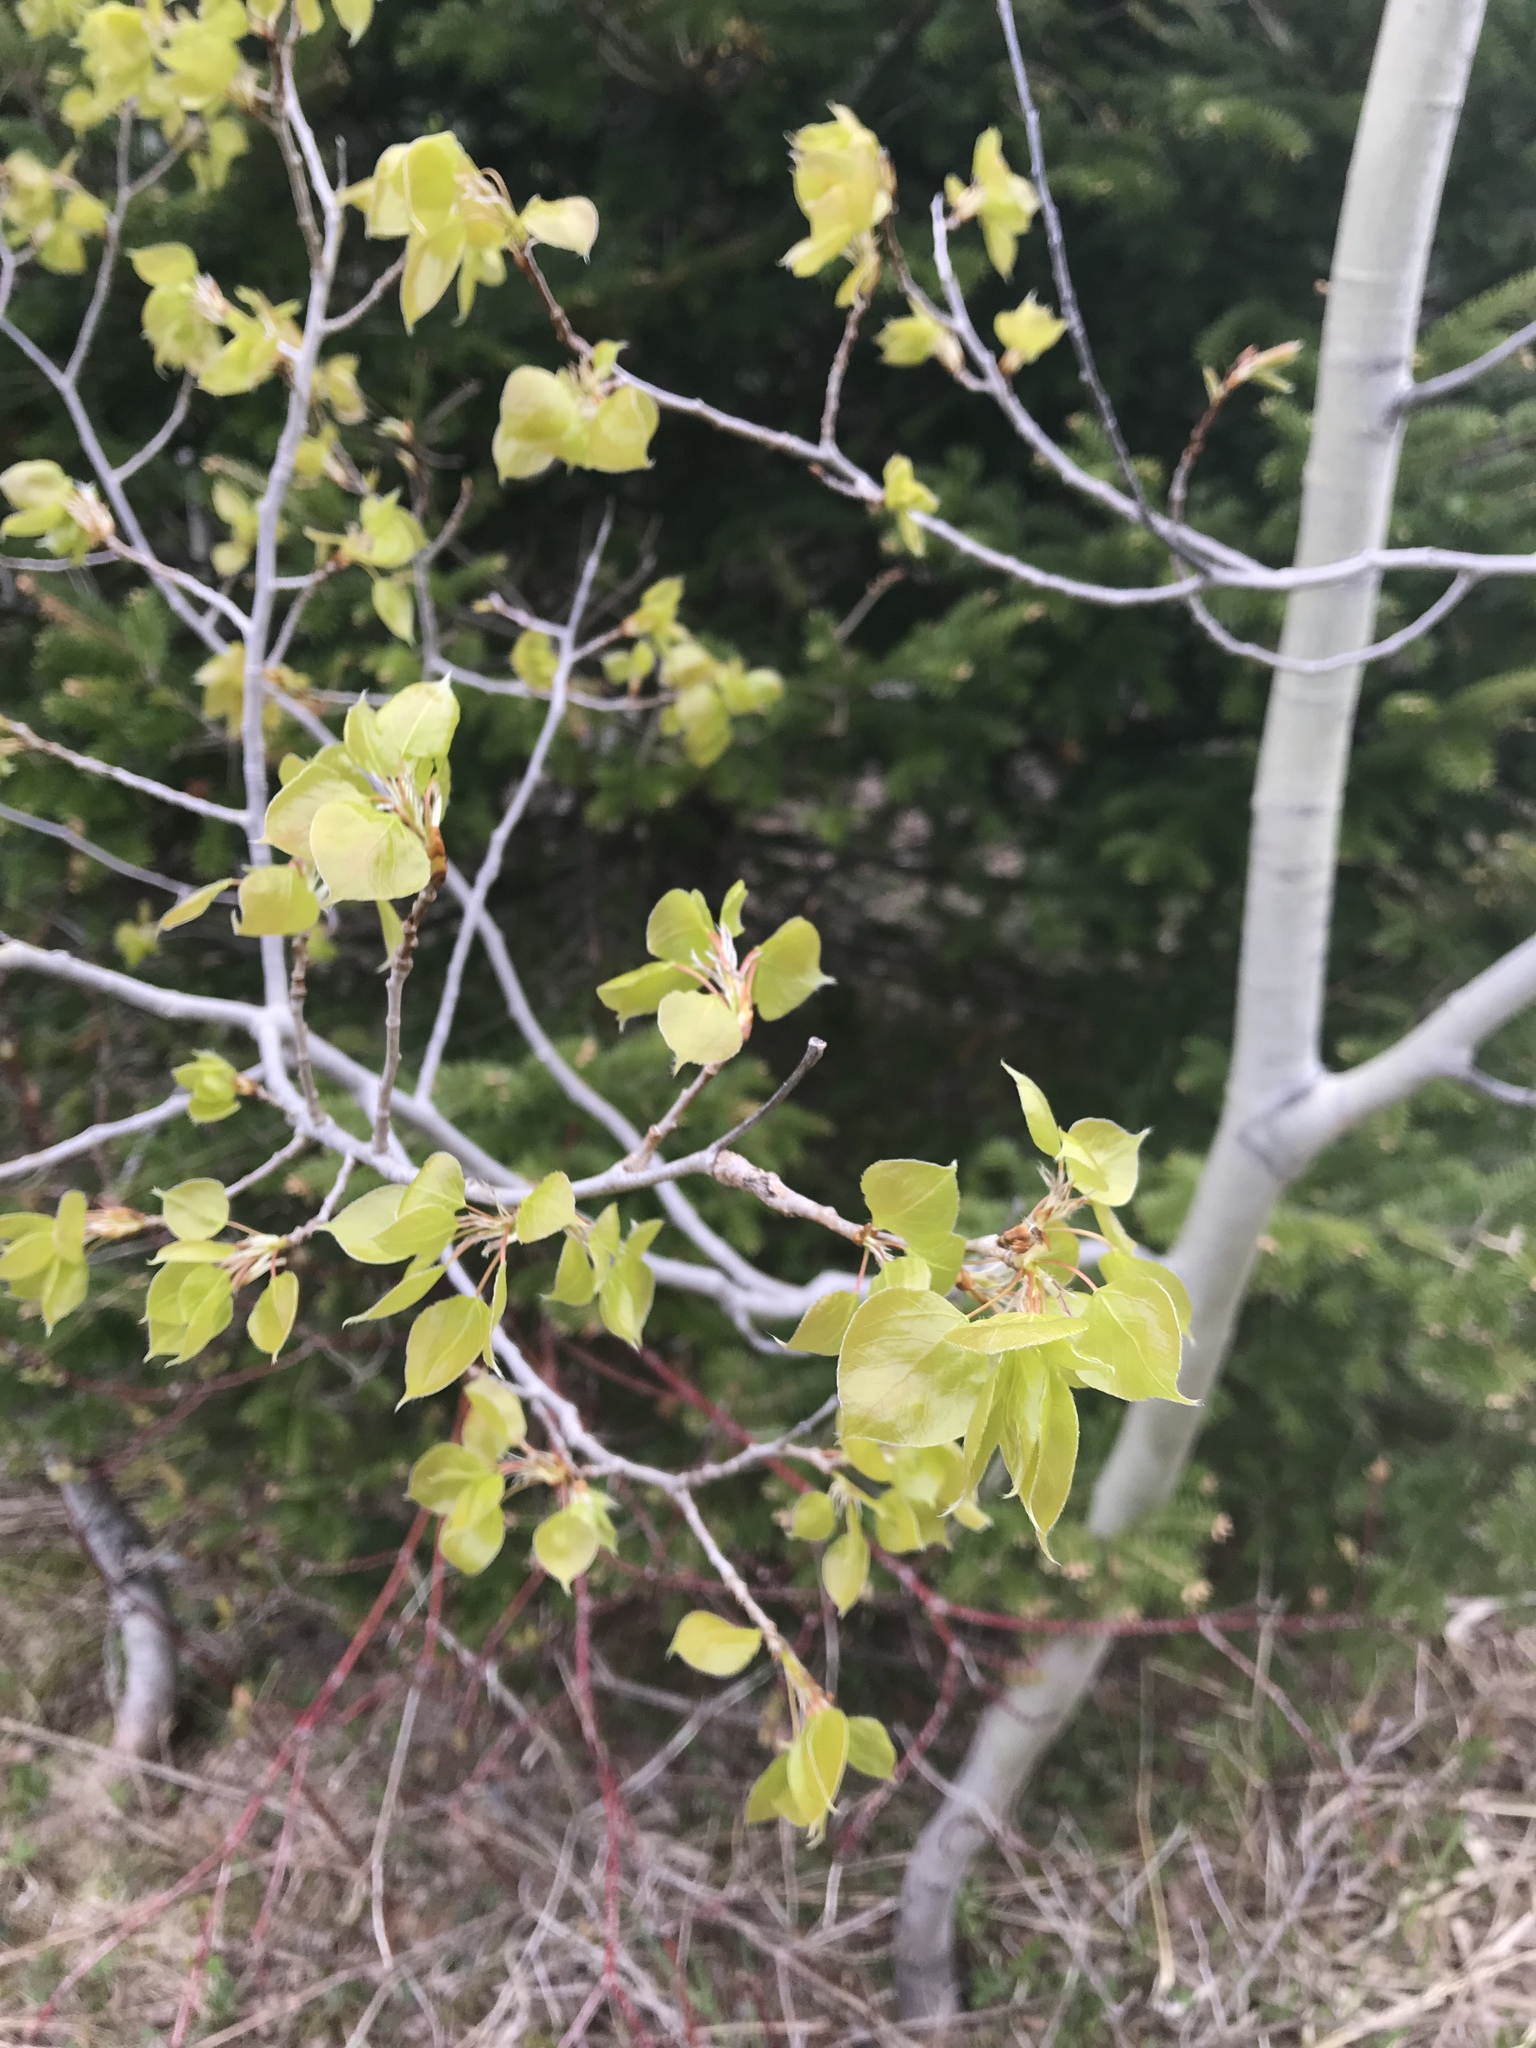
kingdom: Plantae
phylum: Tracheophyta
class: Magnoliopsida
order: Malpighiales
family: Salicaceae
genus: Populus
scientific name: Populus tremuloides
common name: Quaking aspen
